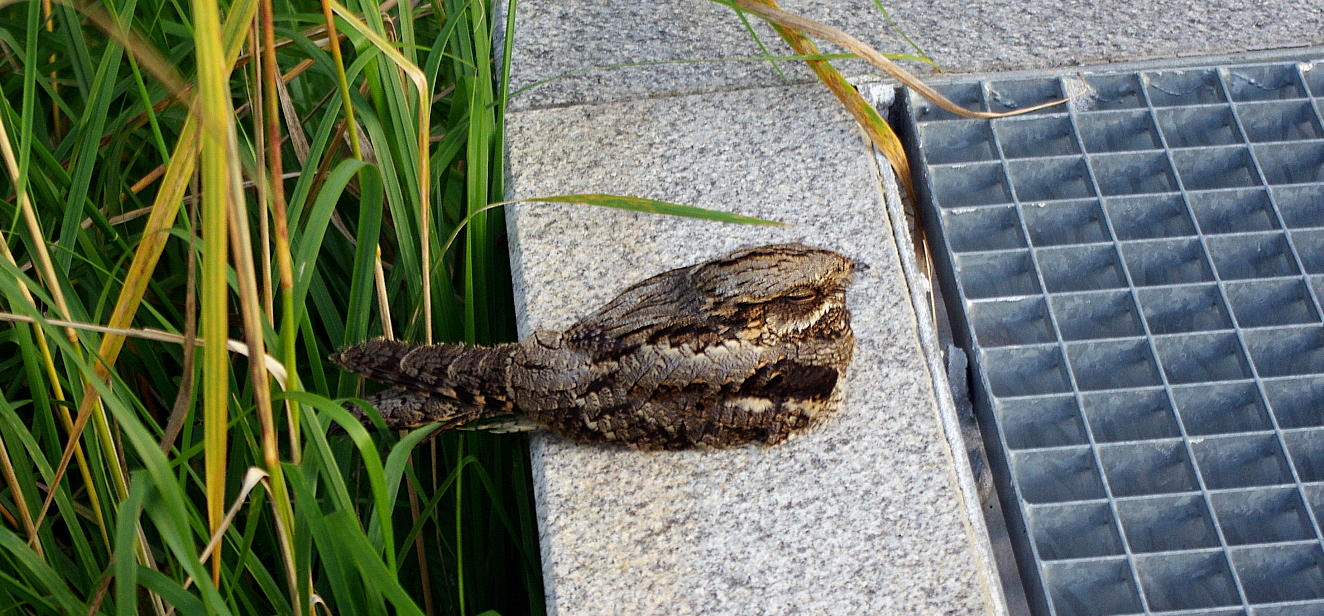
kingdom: Animalia
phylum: Chordata
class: Aves
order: Caprimulgiformes
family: Caprimulgidae
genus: Caprimulgus
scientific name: Caprimulgus europaeus
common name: European nightjar
